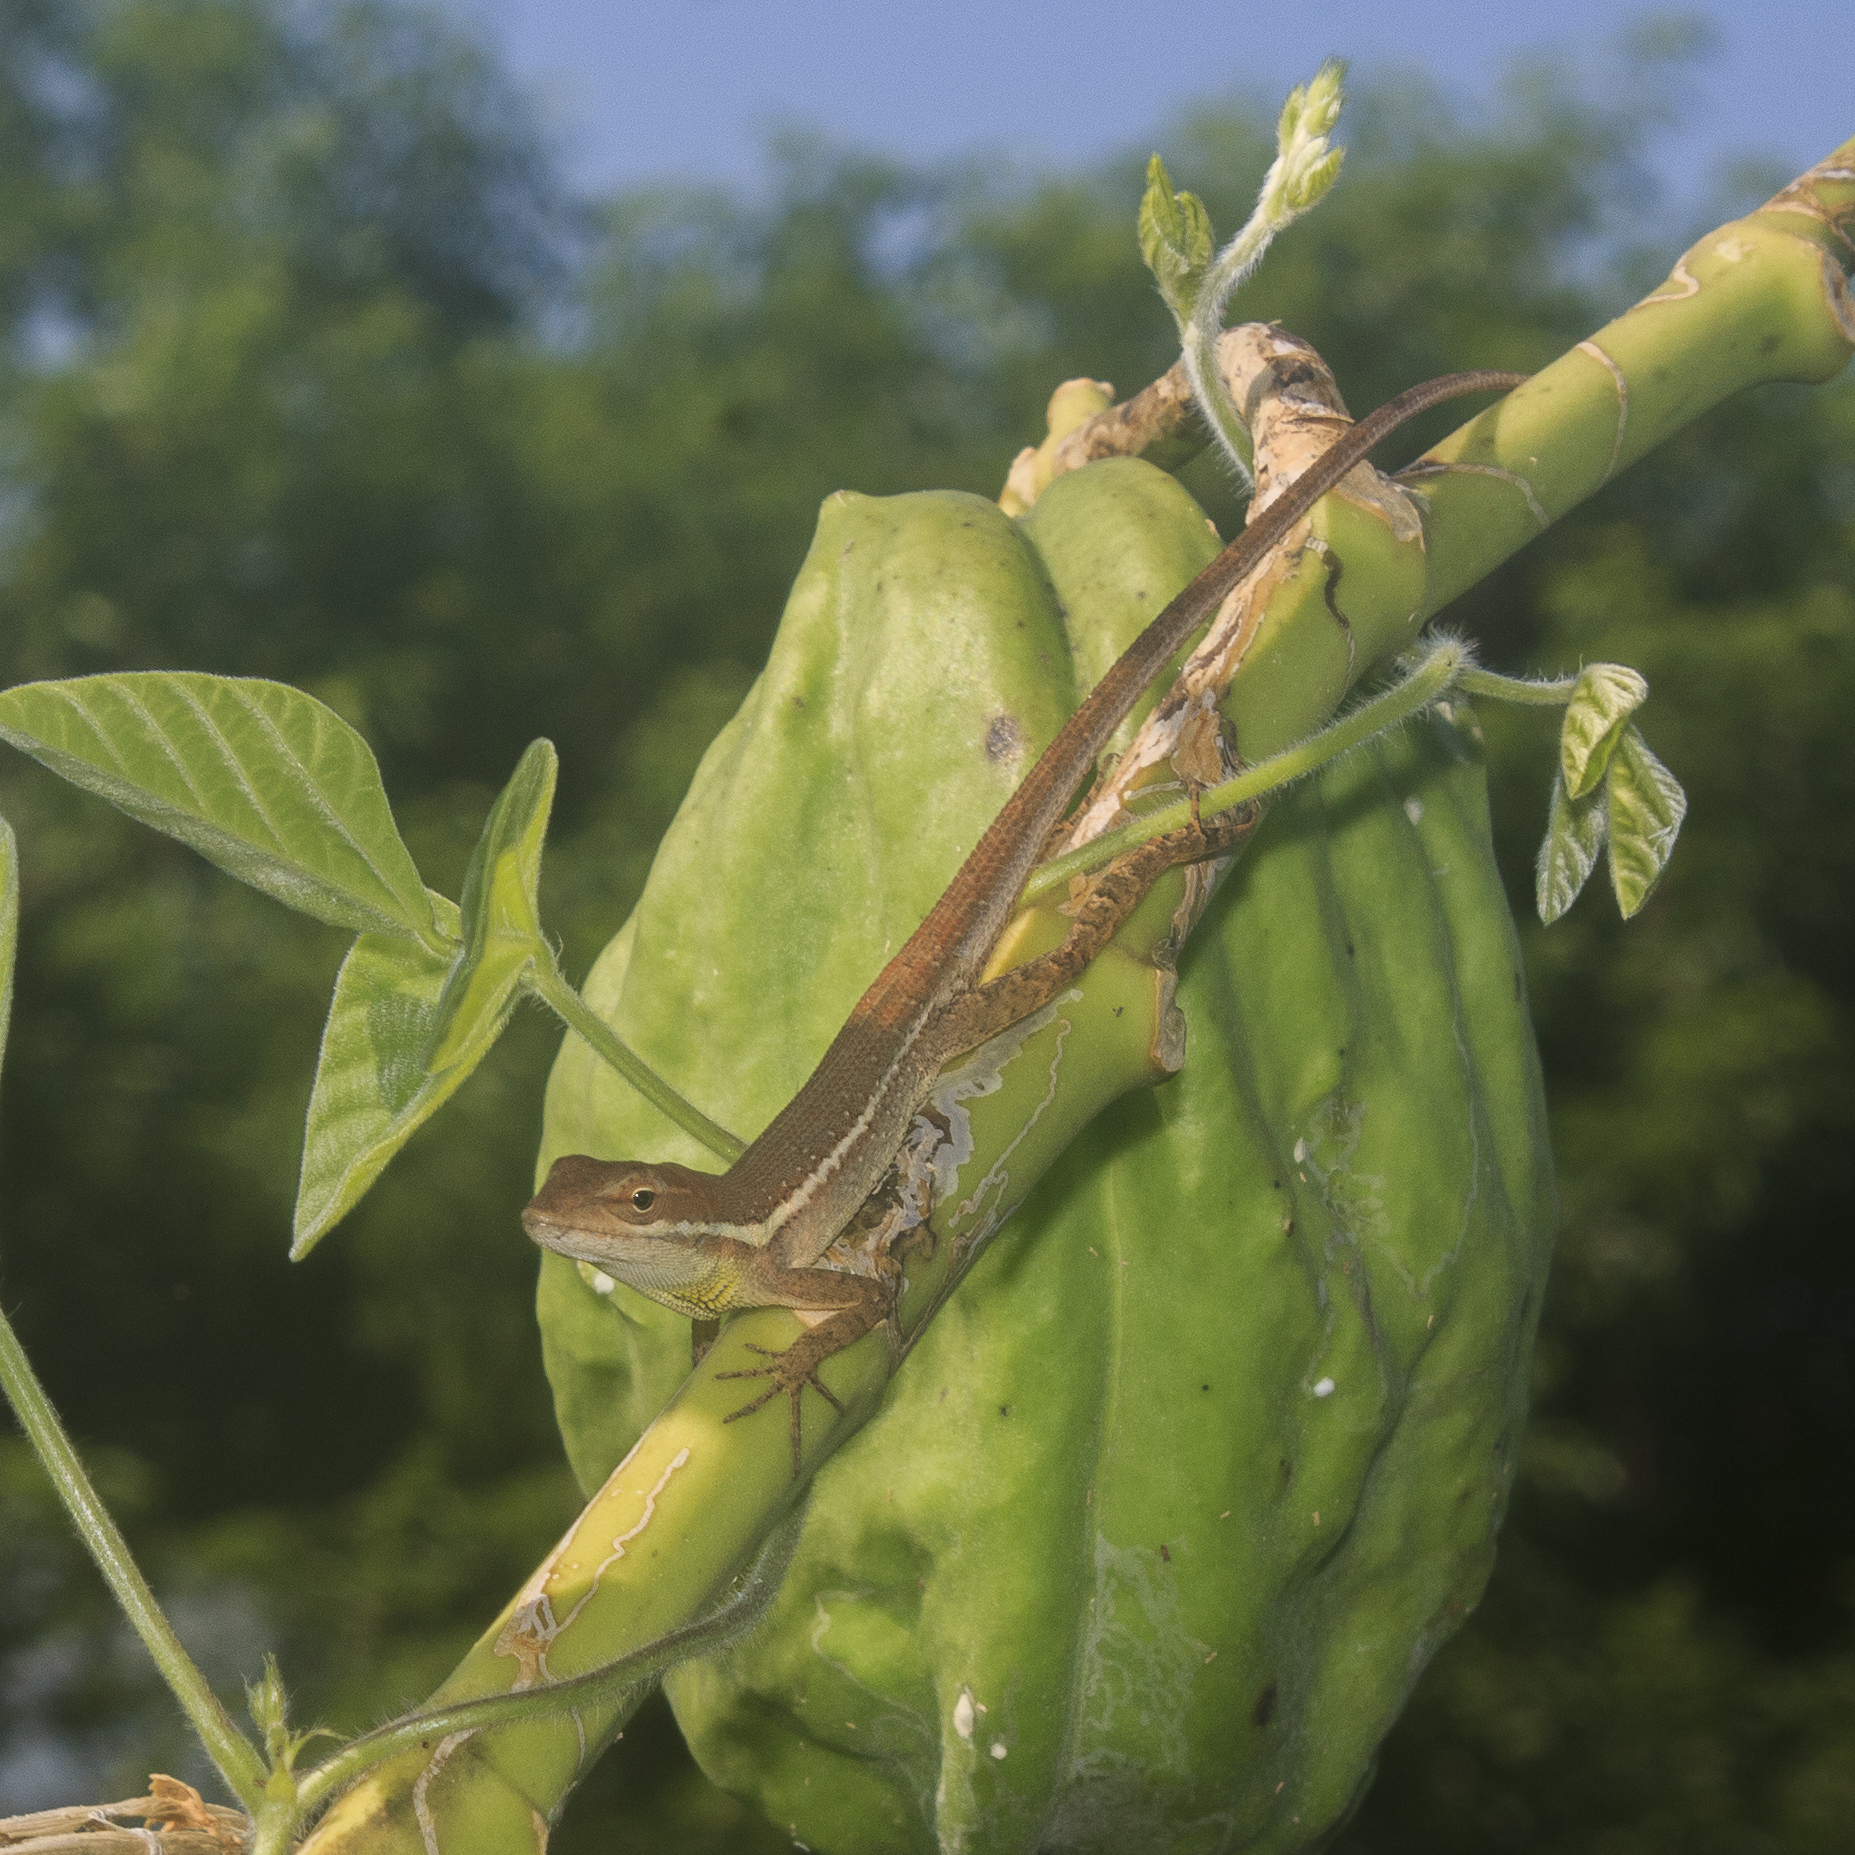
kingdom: Animalia
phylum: Chordata
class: Squamata
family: Dactyloidae
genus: Anolis
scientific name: Anolis auratus
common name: Grass anole
